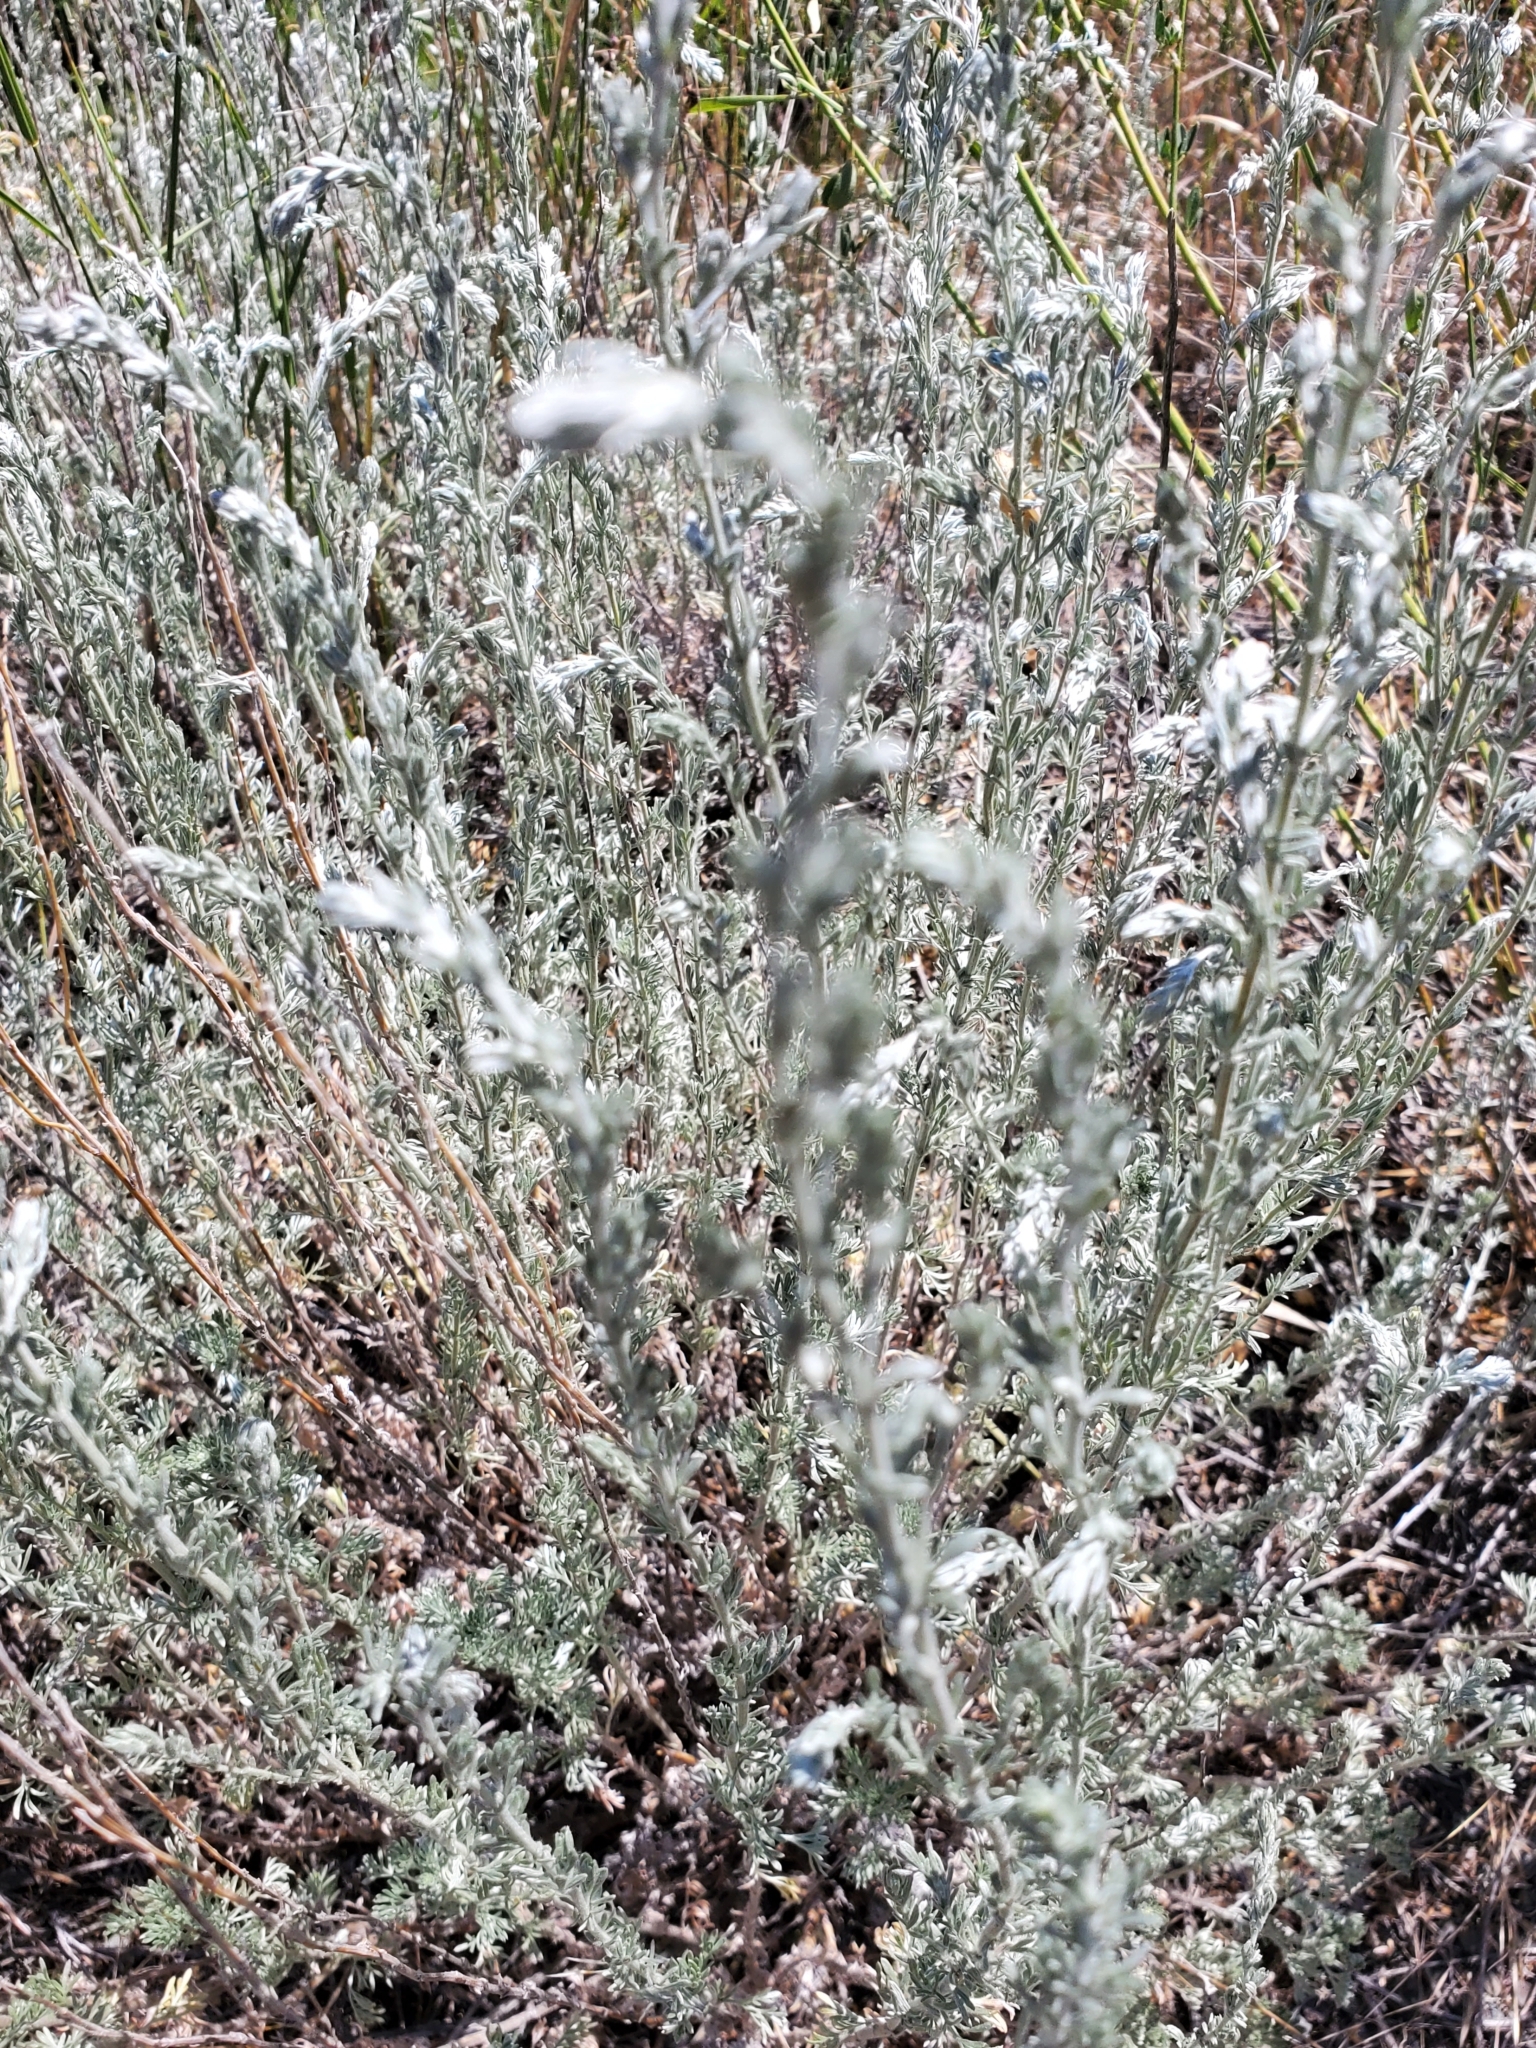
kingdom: Plantae
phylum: Tracheophyta
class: Magnoliopsida
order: Asterales
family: Asteraceae
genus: Artemisia
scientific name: Artemisia frigida
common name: Prairie sagewort
